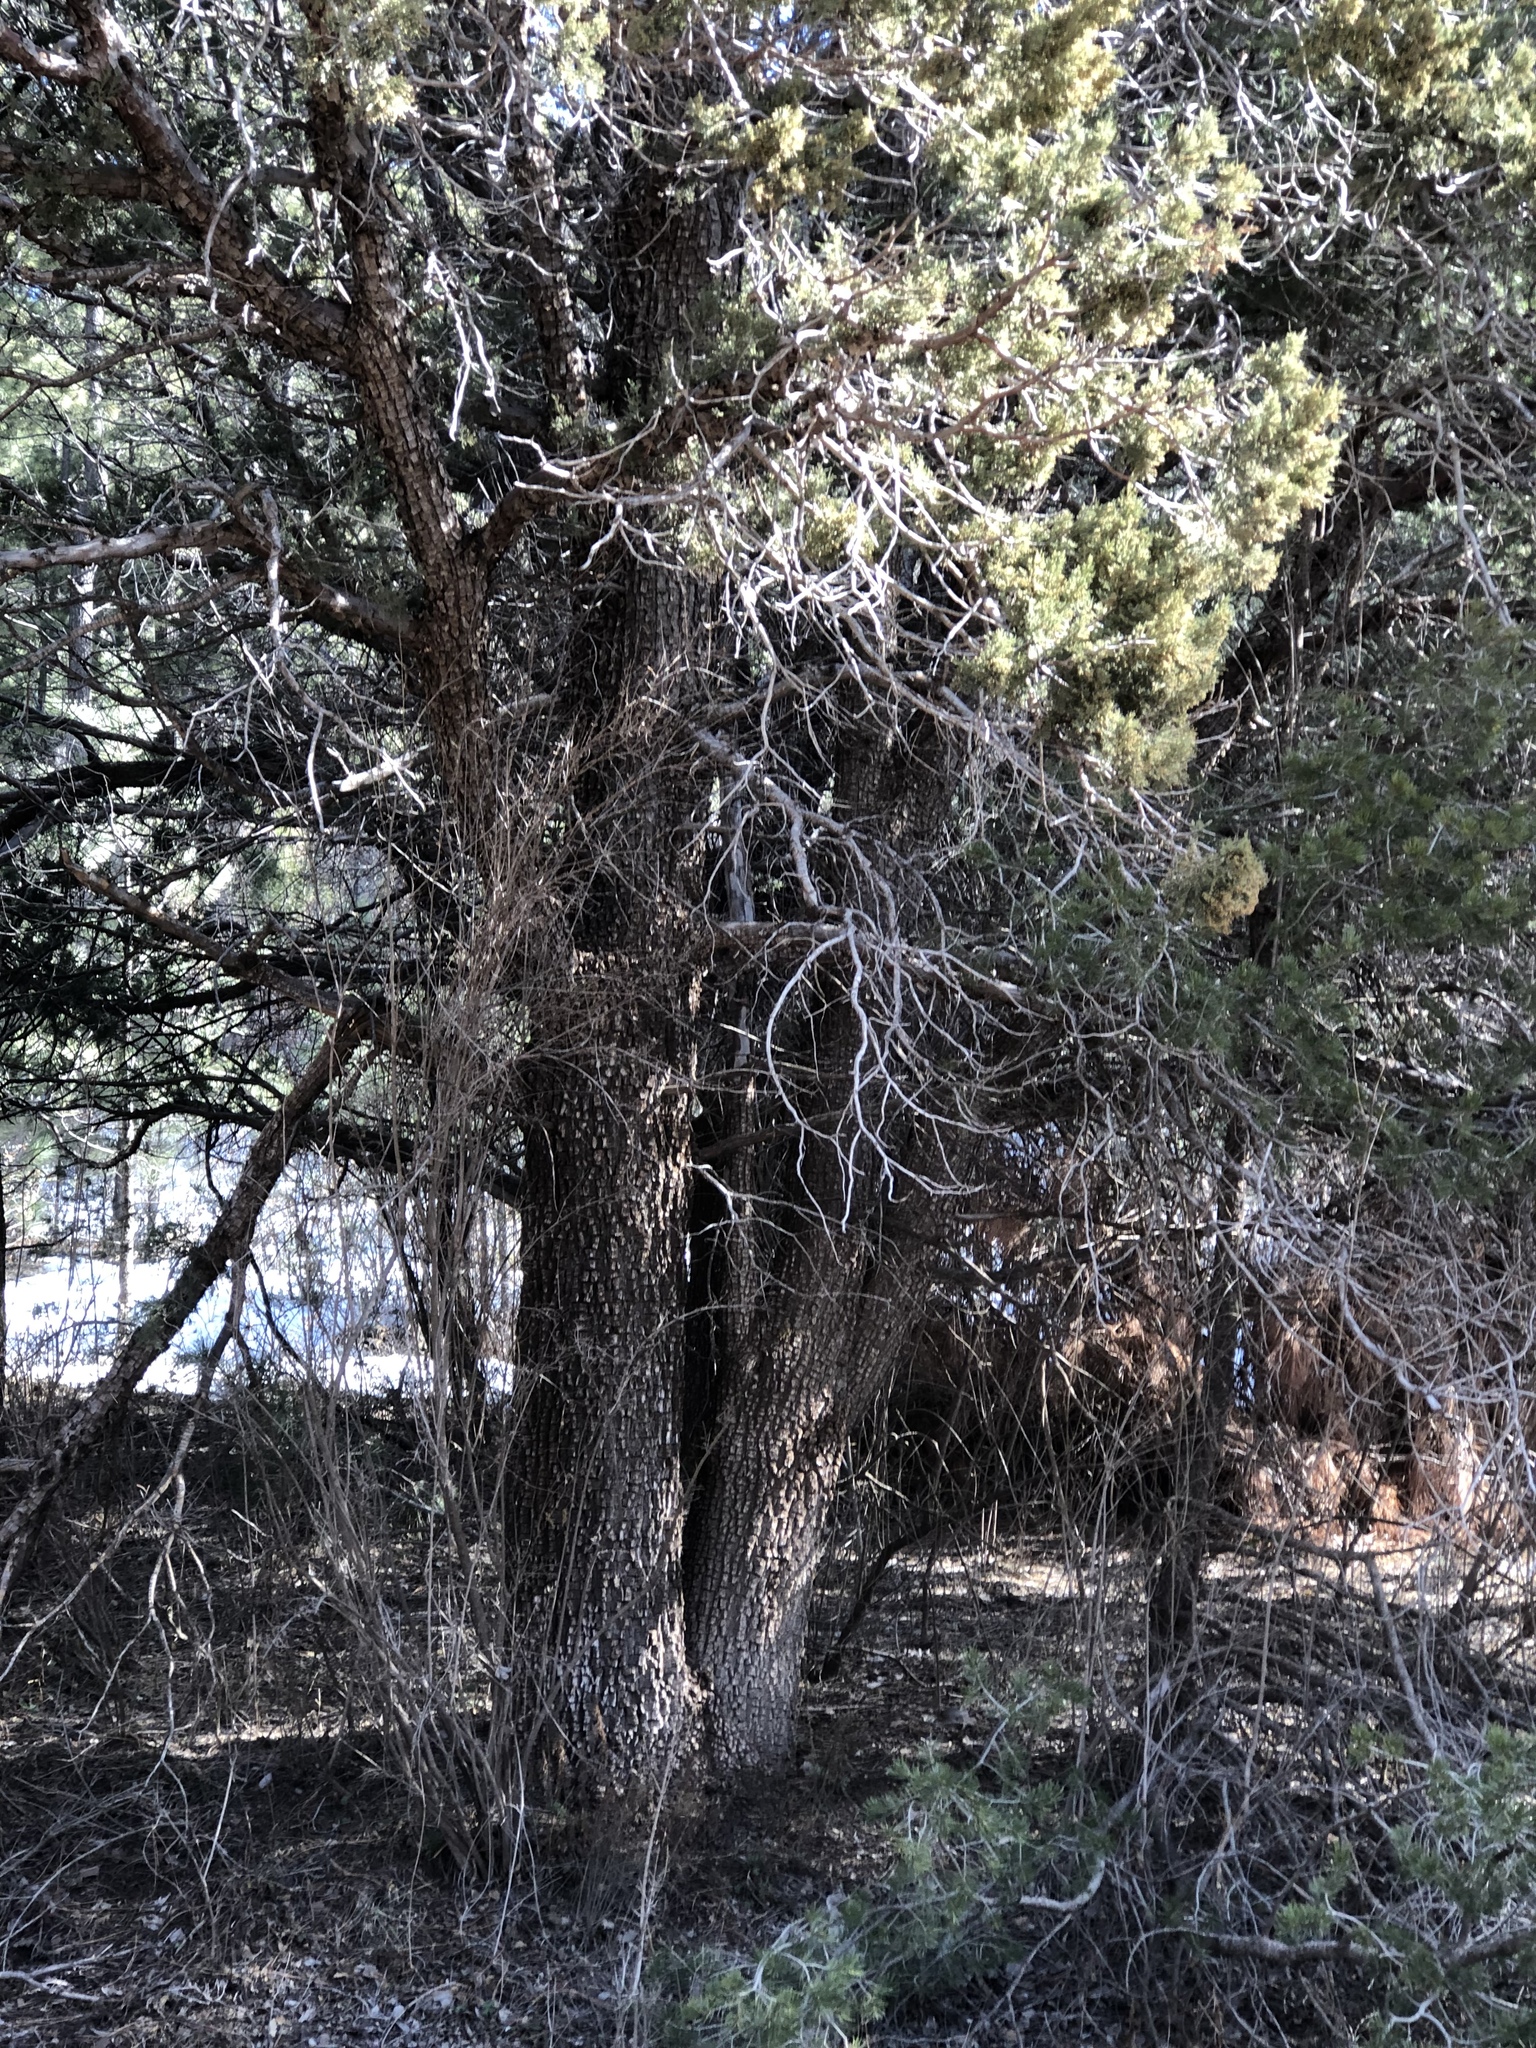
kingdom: Plantae
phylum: Tracheophyta
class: Pinopsida
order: Pinales
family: Cupressaceae
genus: Juniperus
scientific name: Juniperus deppeana
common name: Alligator juniper
